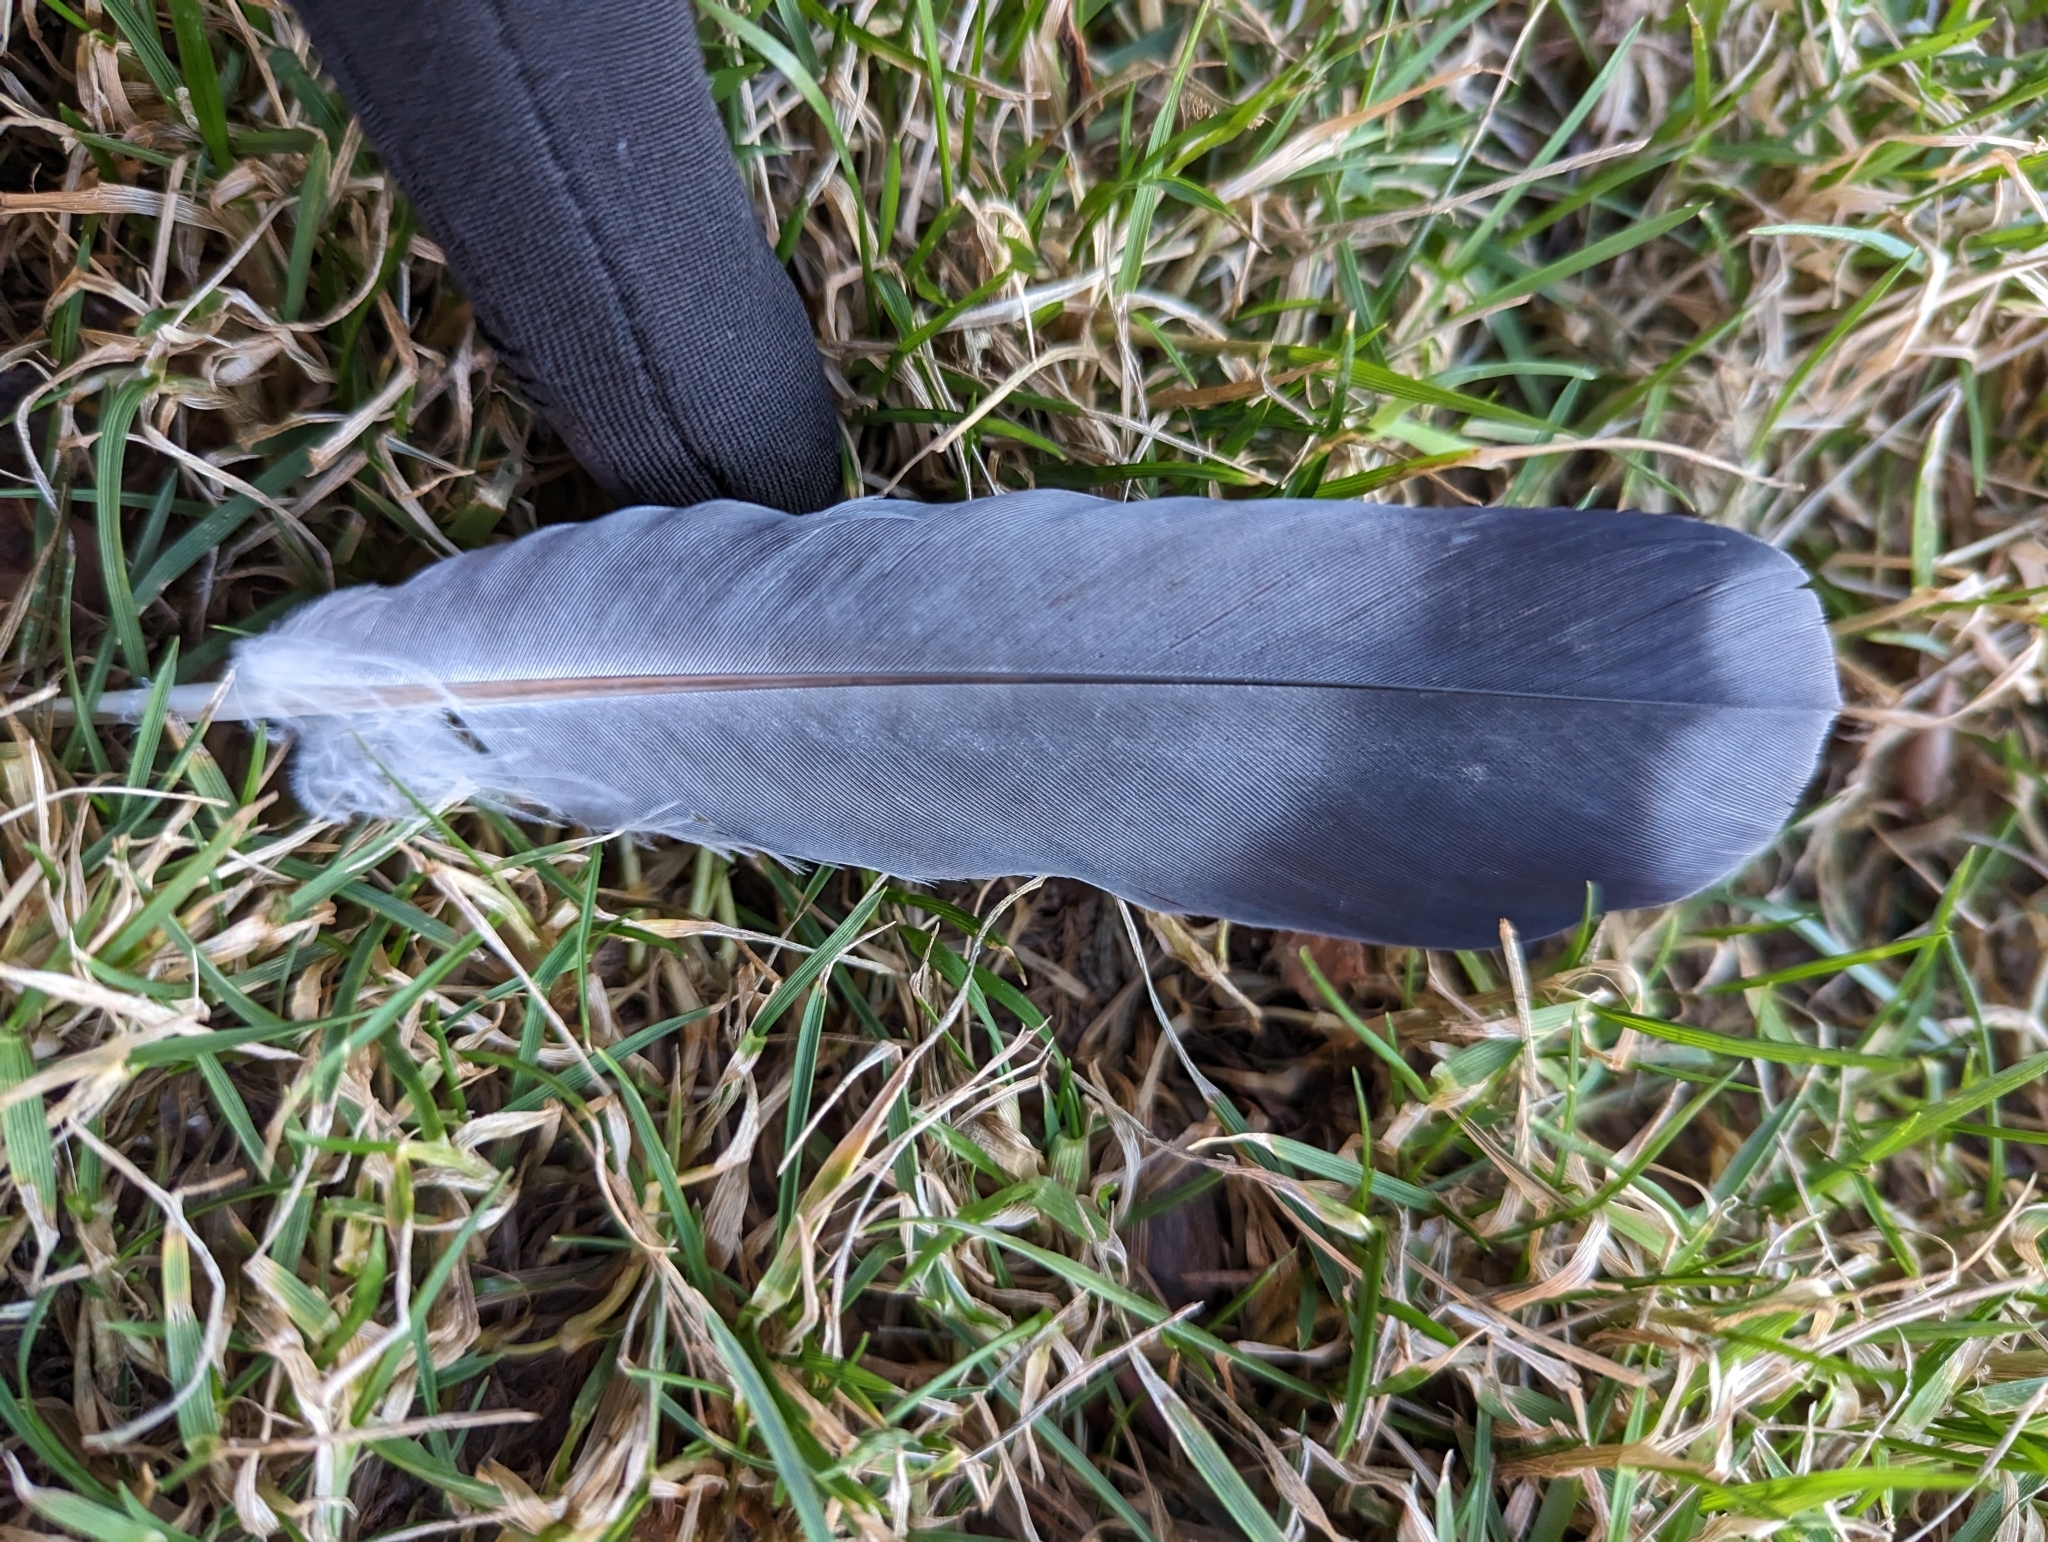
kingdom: Animalia
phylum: Chordata
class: Aves
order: Columbiformes
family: Columbidae
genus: Columba
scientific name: Columba livia
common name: Rock pigeon
